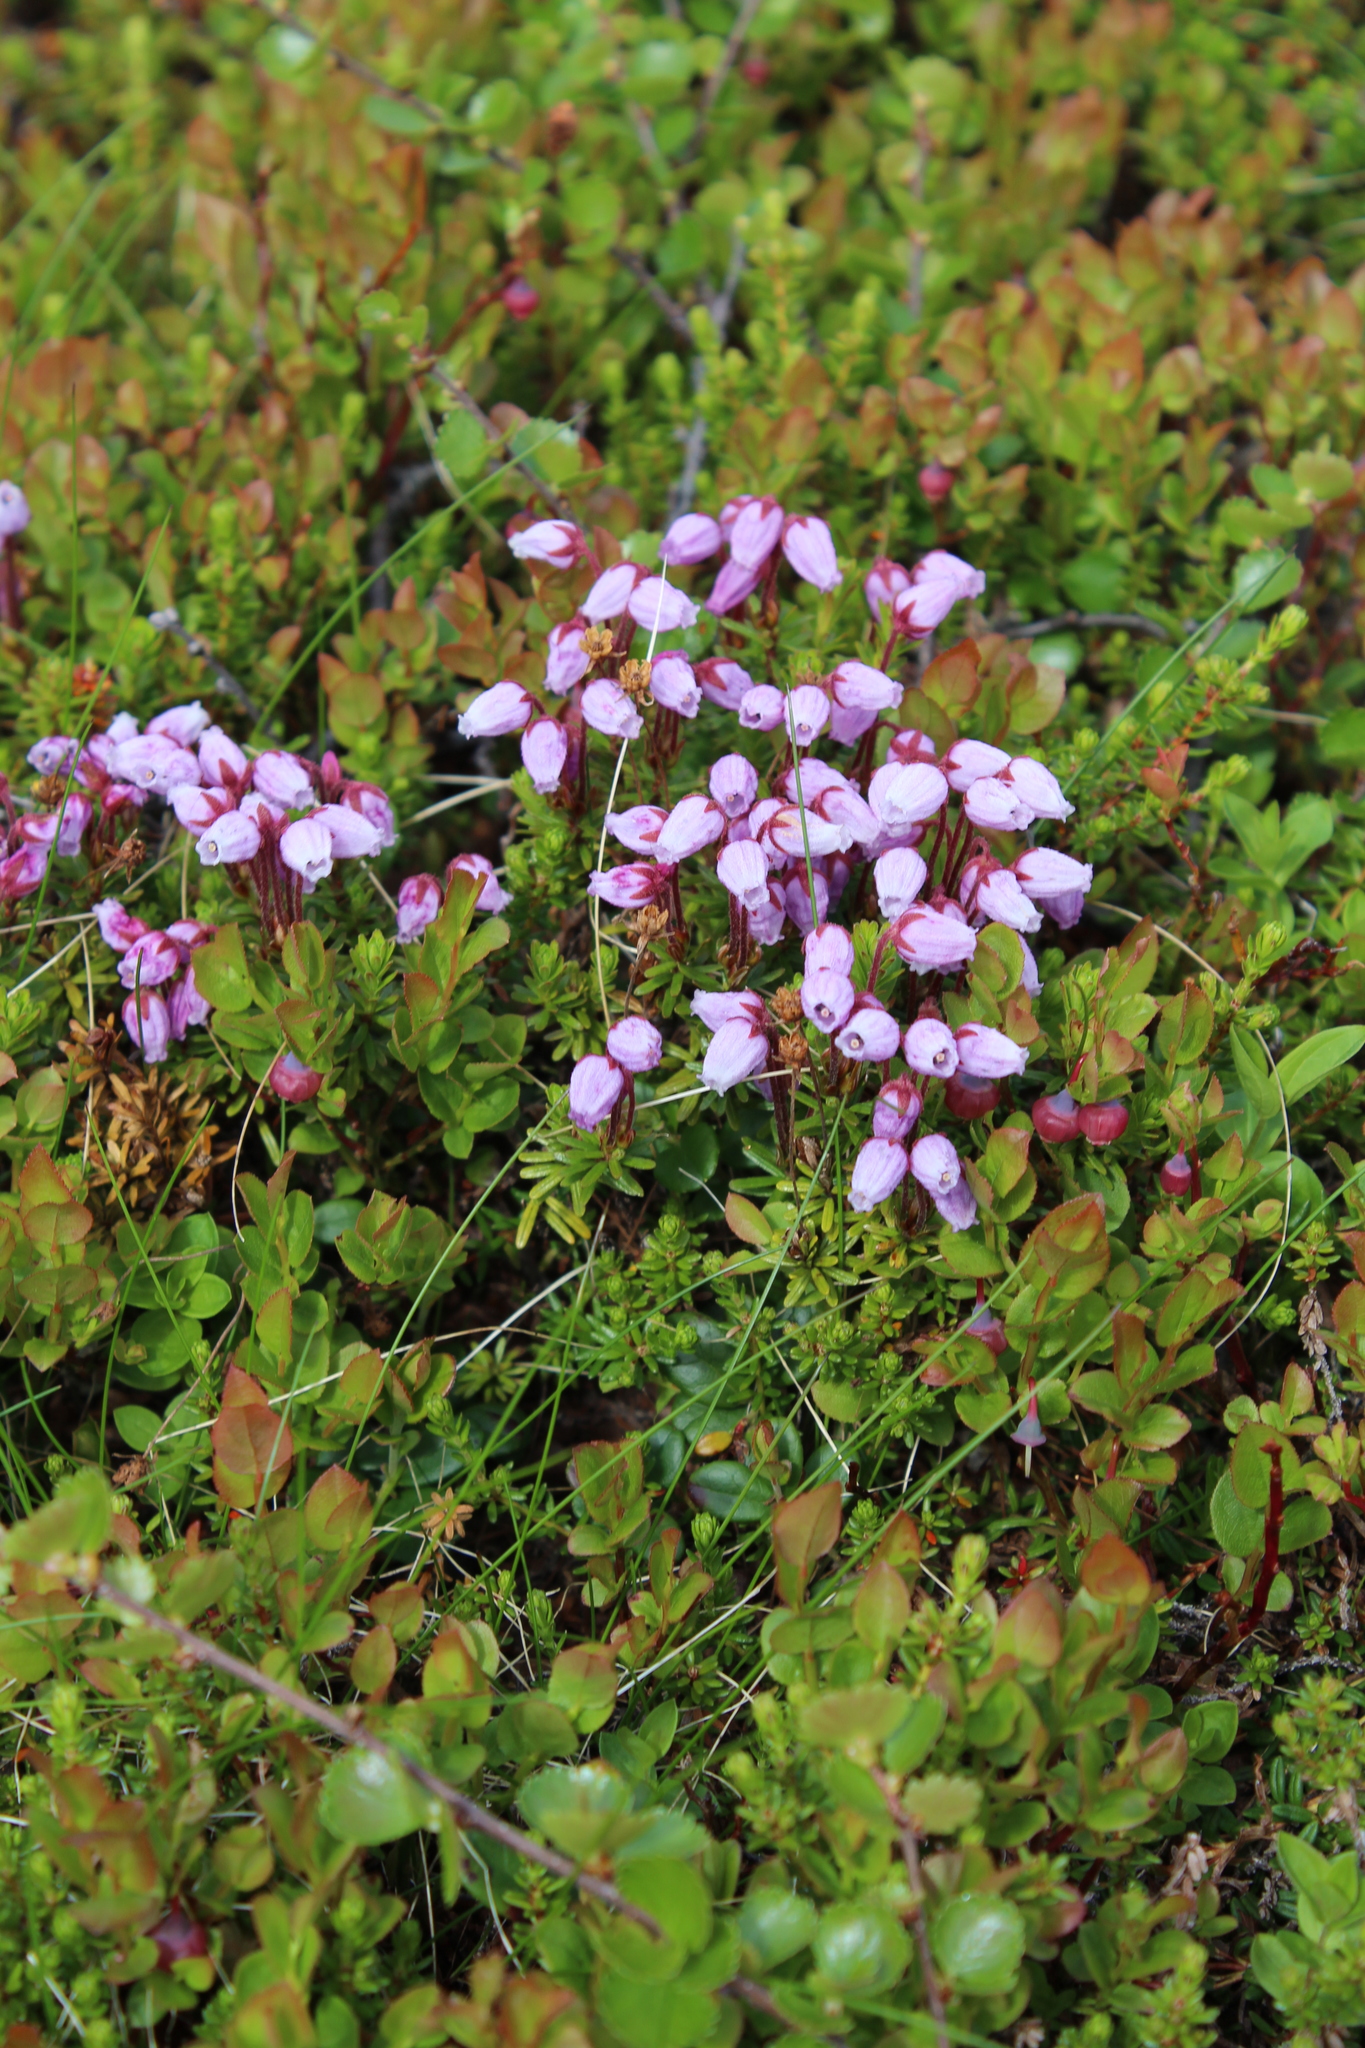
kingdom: Plantae
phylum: Tracheophyta
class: Magnoliopsida
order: Ericales
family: Ericaceae
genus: Phyllodoce
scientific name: Phyllodoce caerulea
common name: Blue heath
